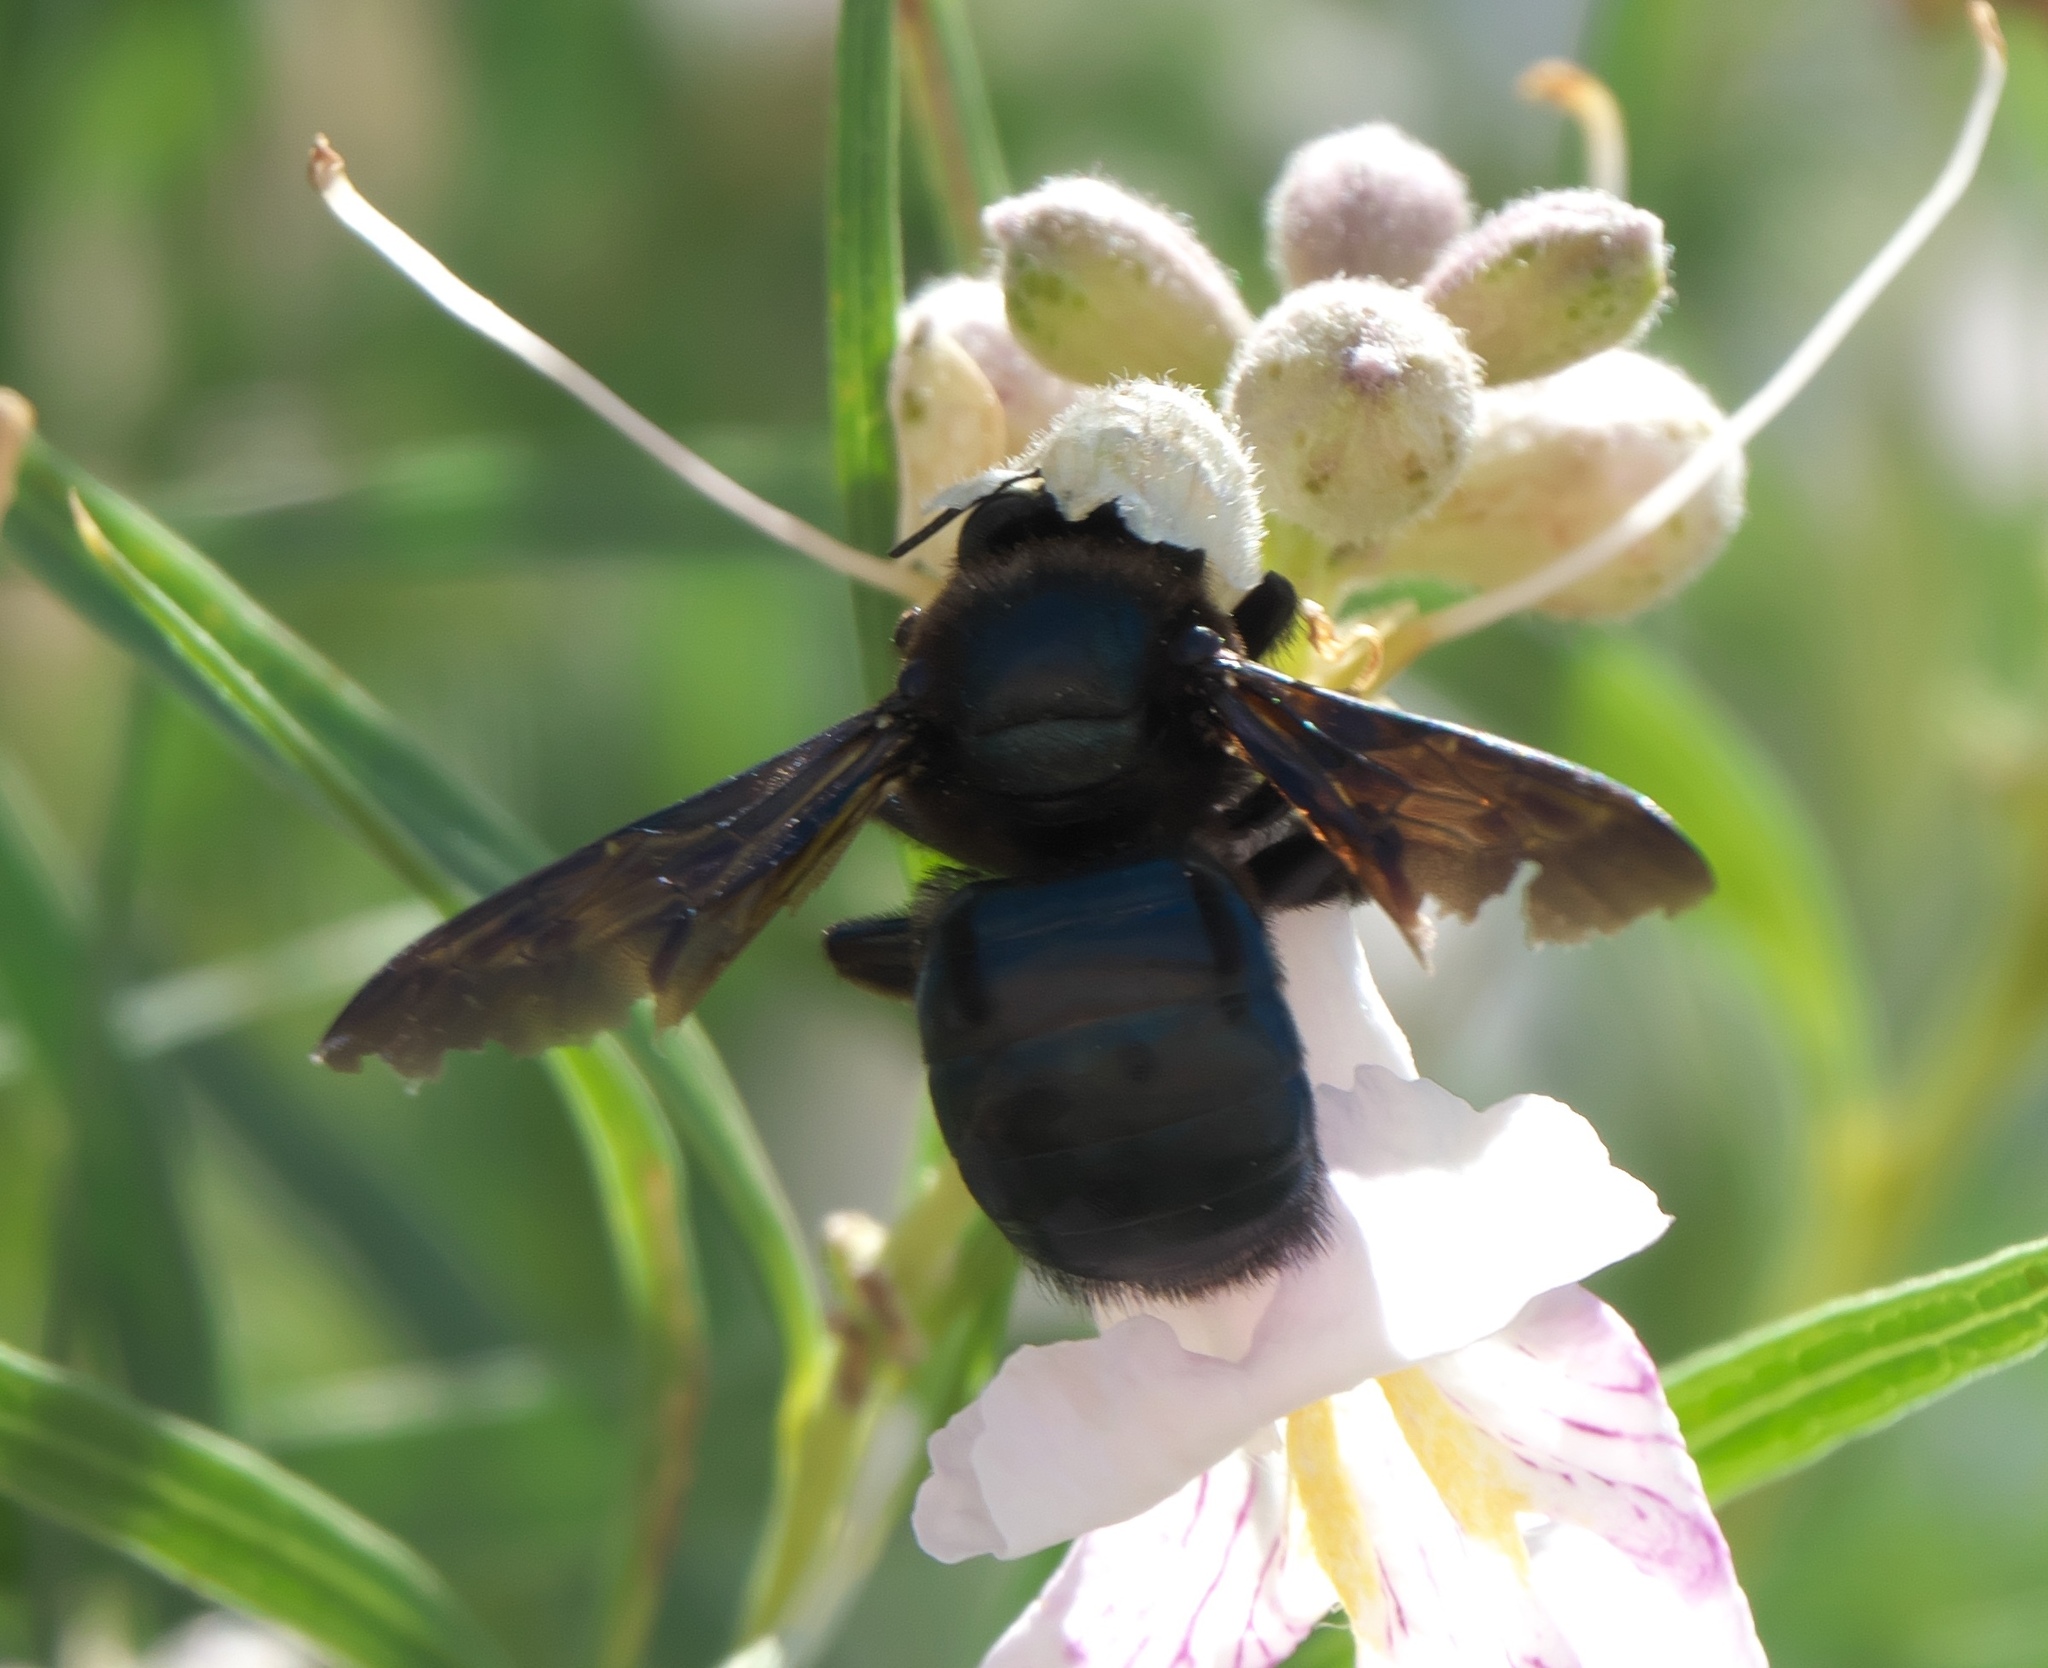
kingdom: Animalia
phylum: Arthropoda
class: Insecta
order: Hymenoptera
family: Apidae
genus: Xylocopa
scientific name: Xylocopa californica
